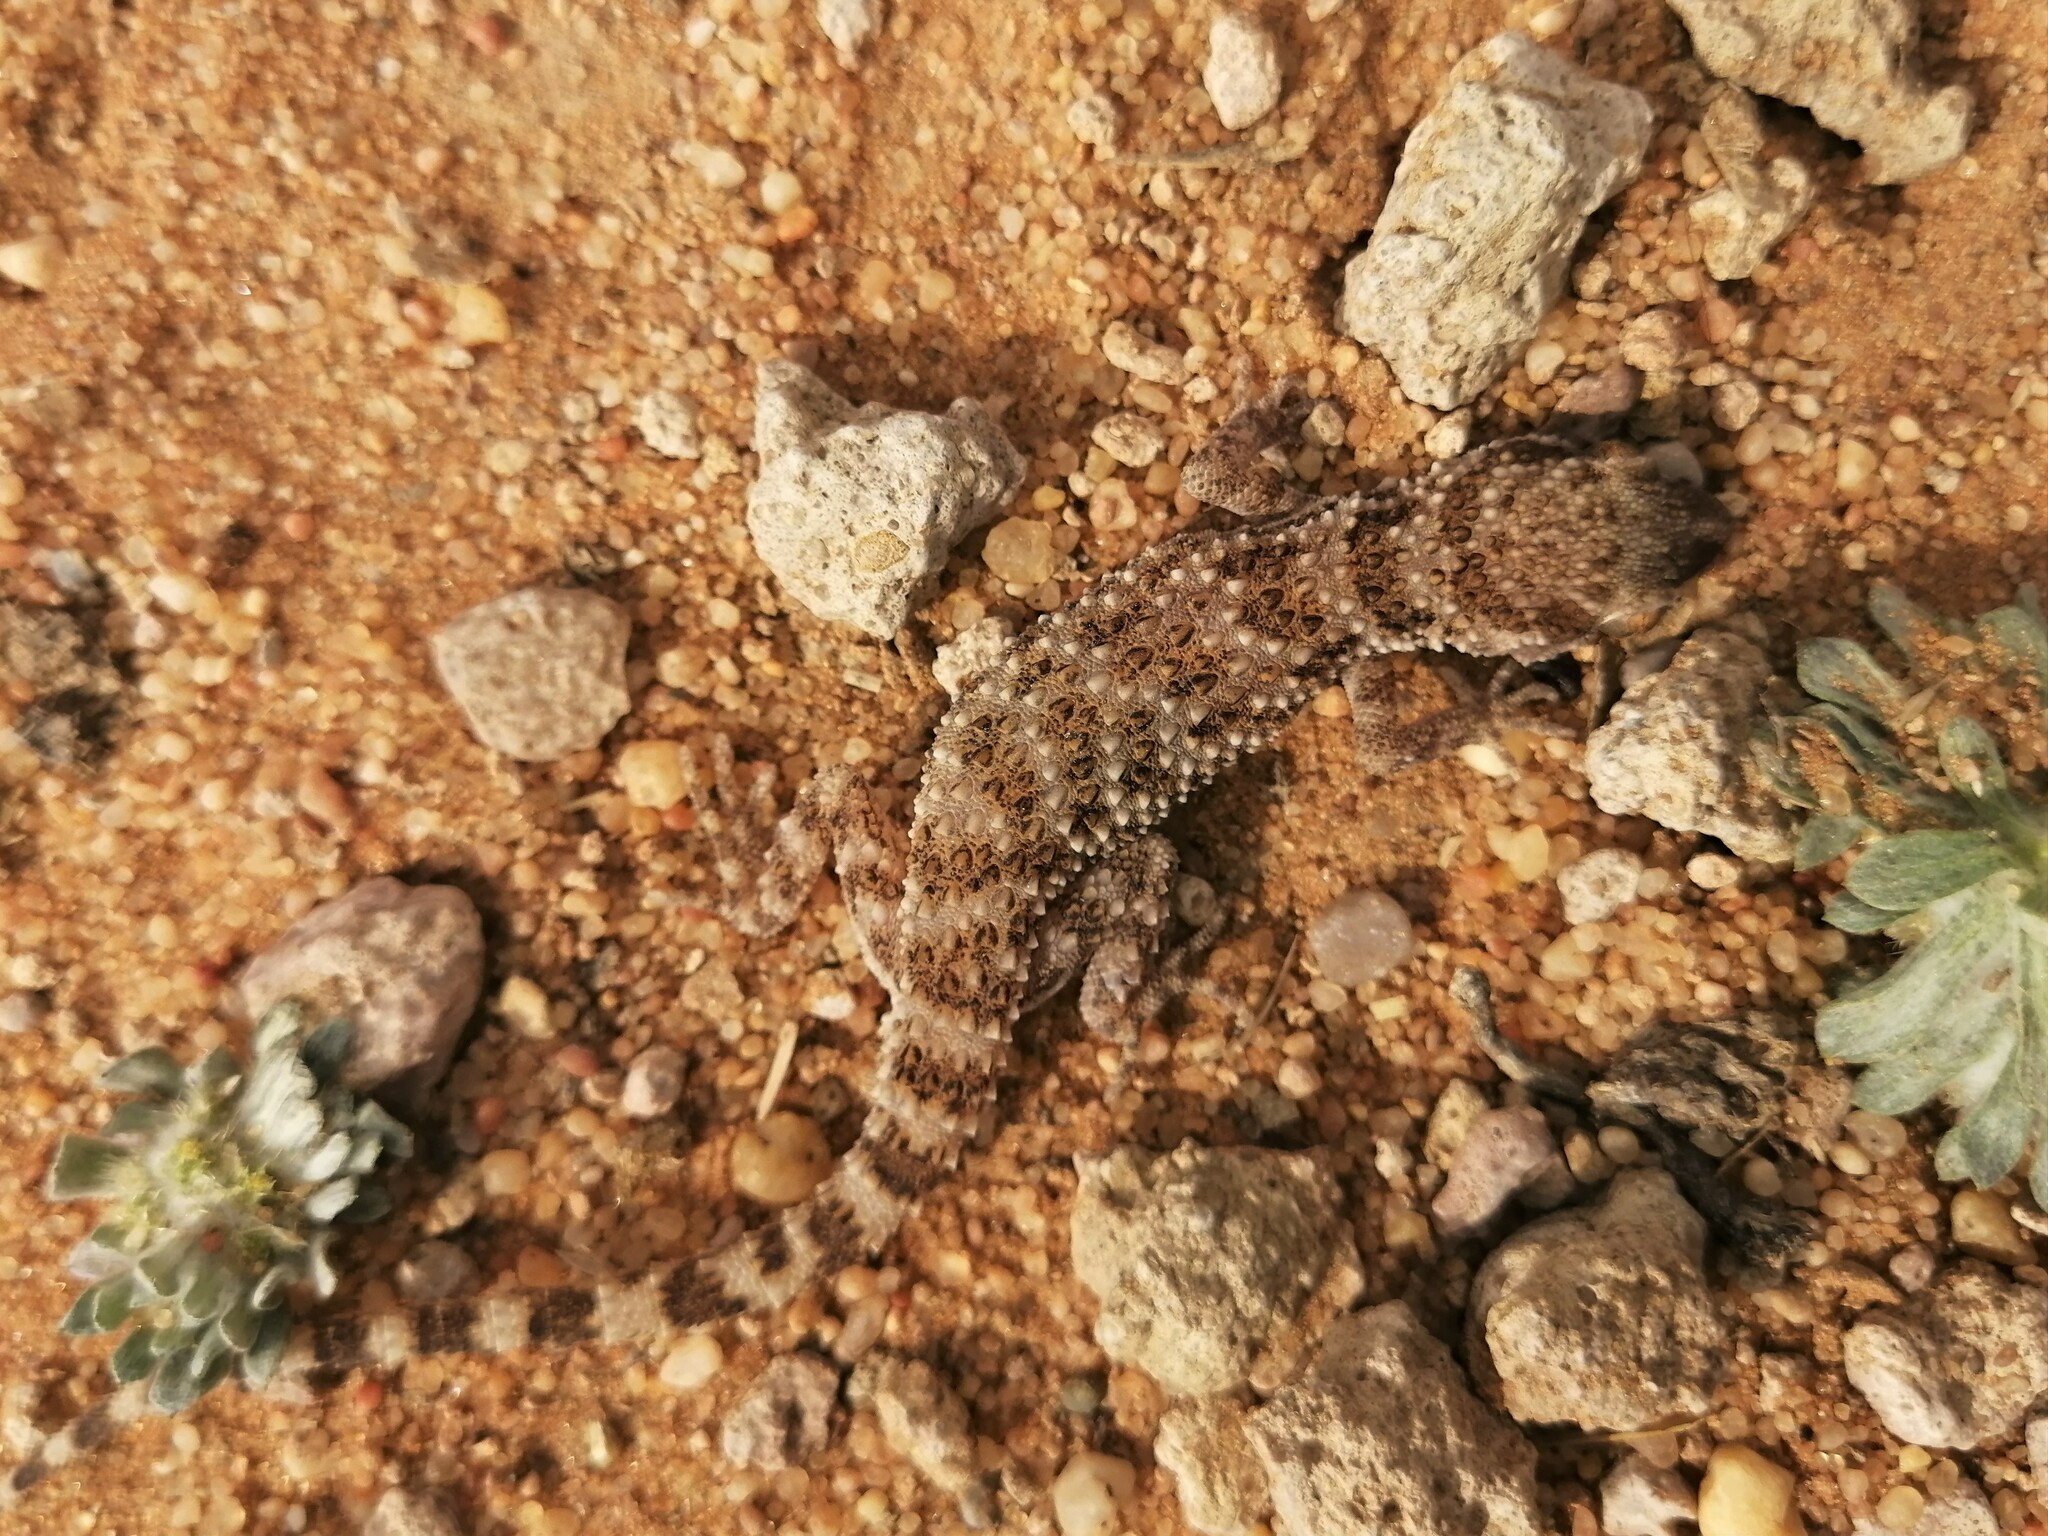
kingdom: Animalia
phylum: Chordata
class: Squamata
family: Gekkonidae
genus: Bunopus
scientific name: Bunopus tuberculatus
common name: Southern tuberculated gecko
